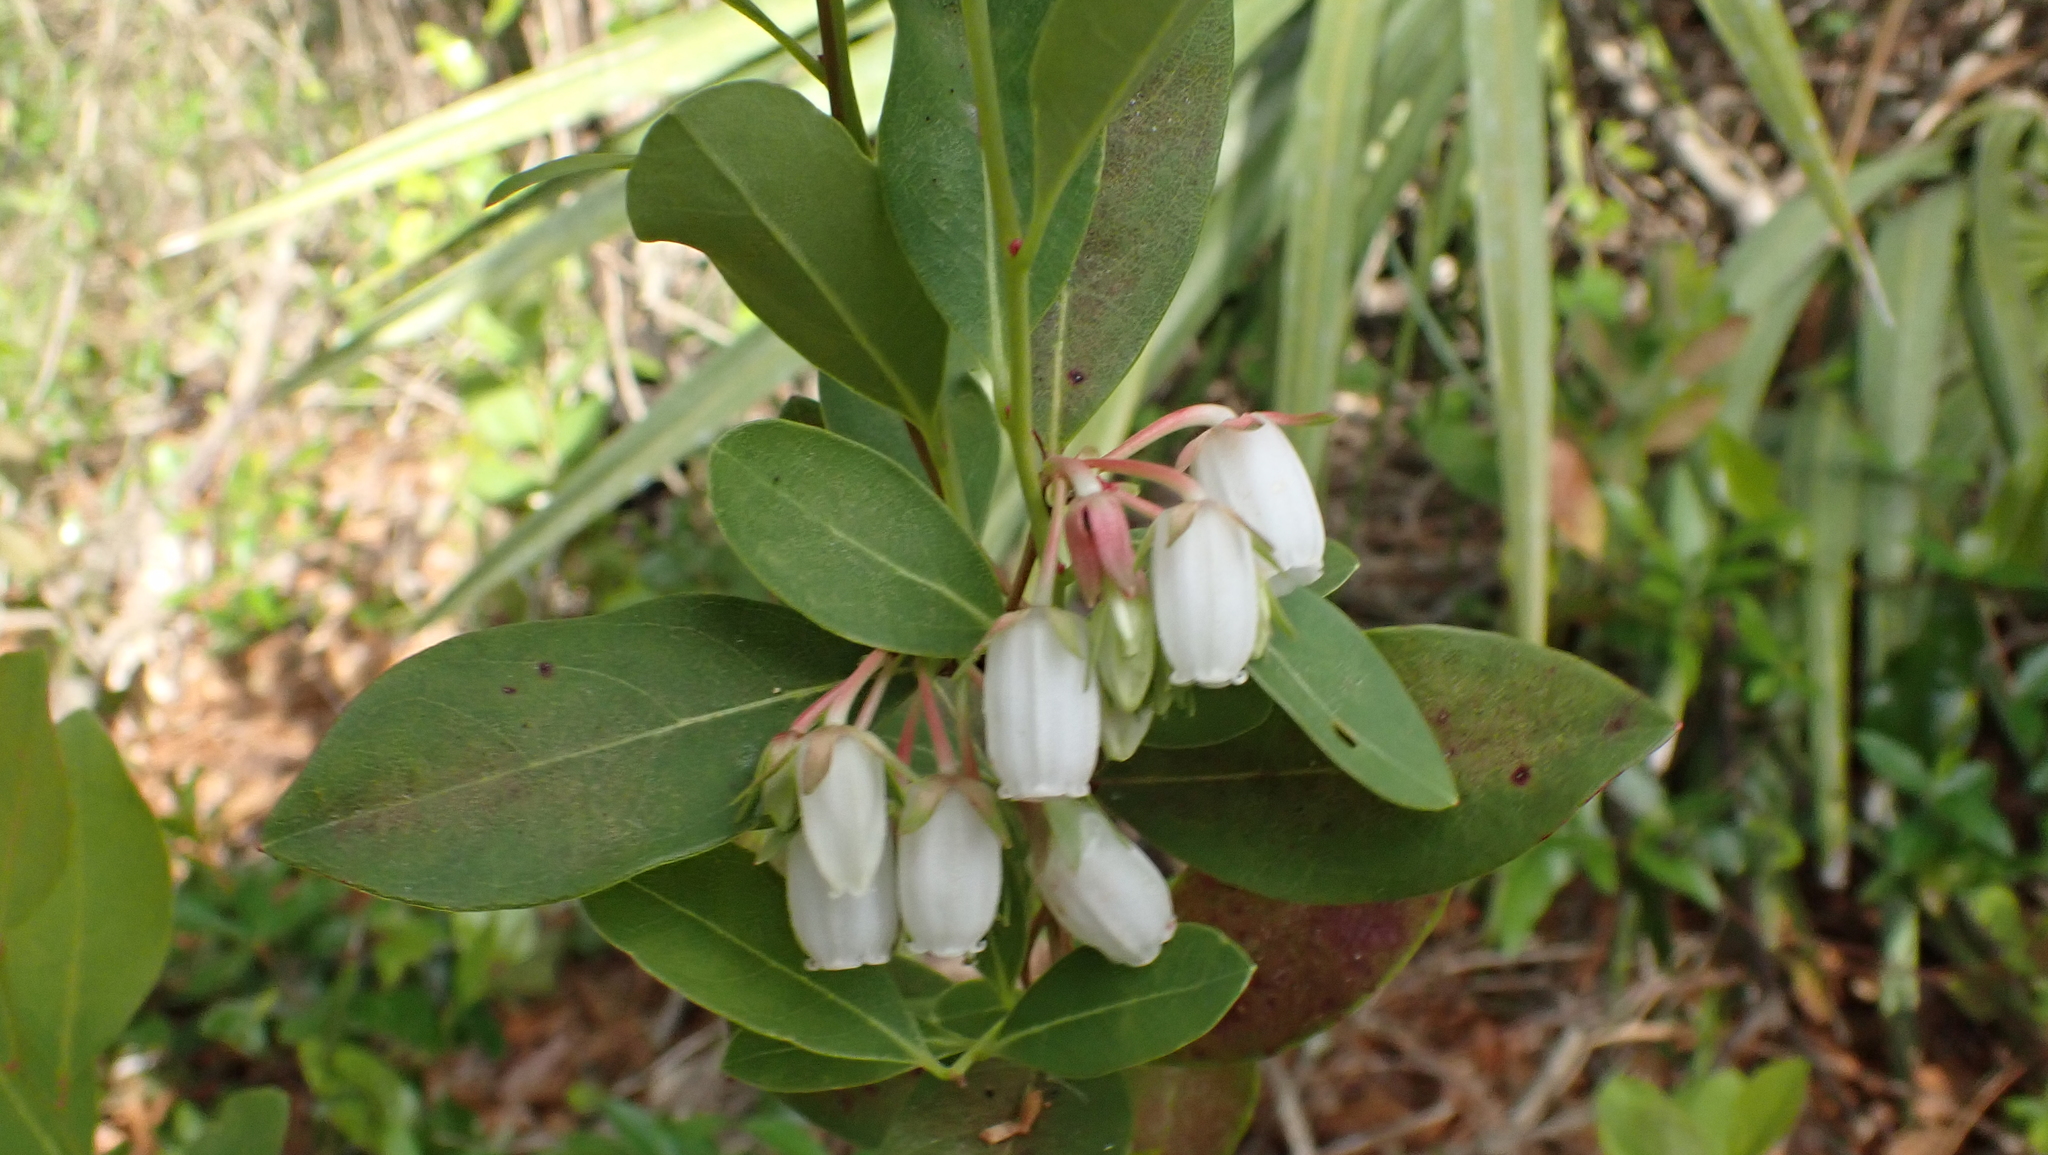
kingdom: Plantae
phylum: Tracheophyta
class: Magnoliopsida
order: Ericales
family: Ericaceae
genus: Lyonia
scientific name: Lyonia mariana
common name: Staggerbush
